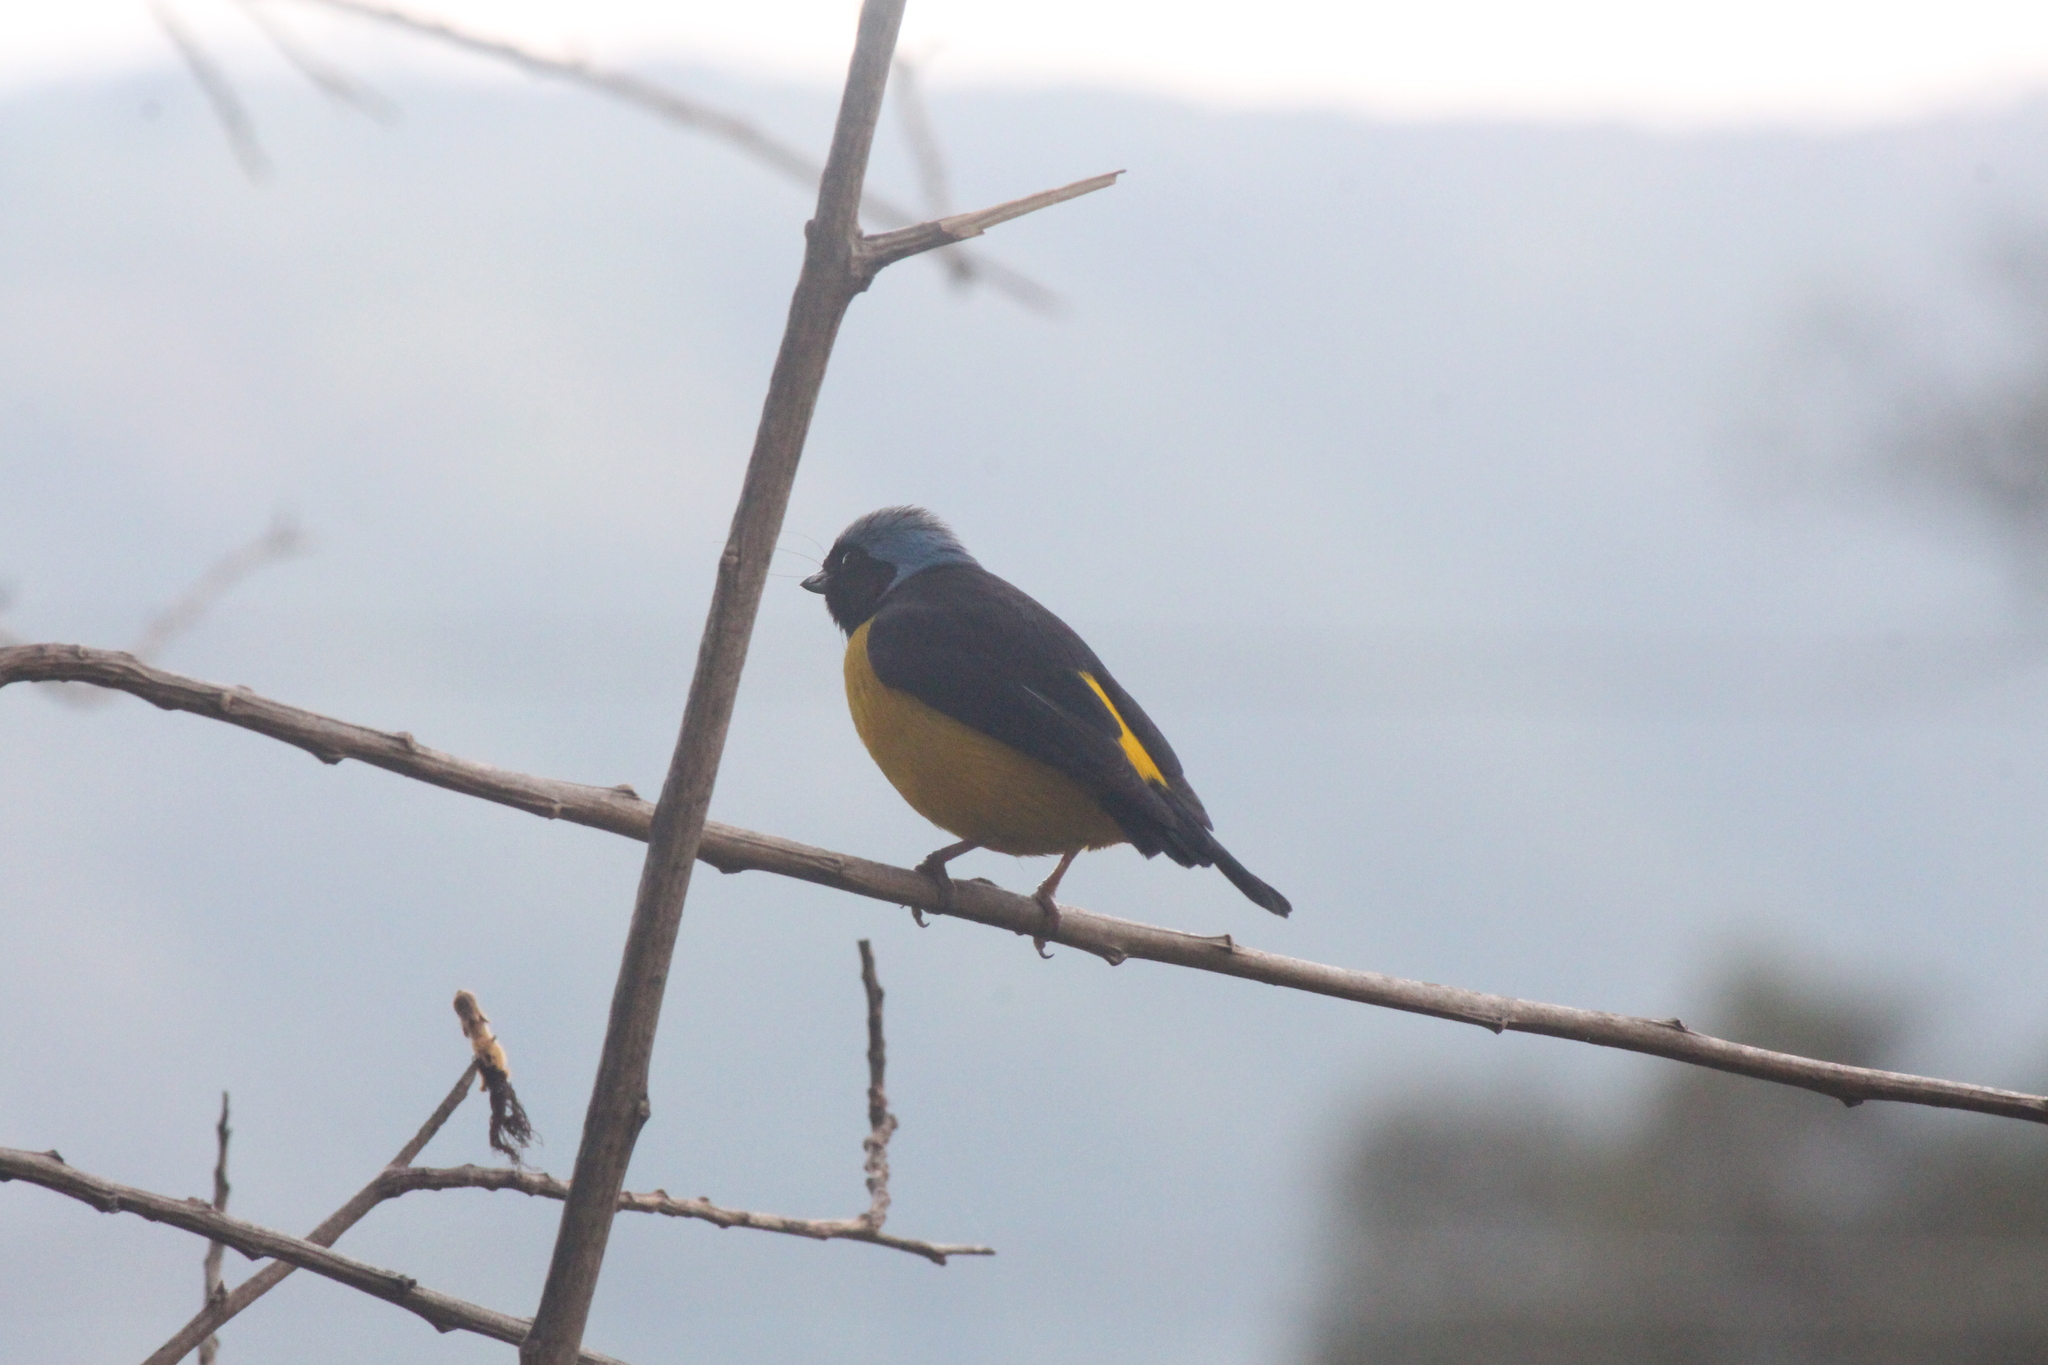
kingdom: Animalia
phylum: Chordata
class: Aves
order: Passeriformes
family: Fringillidae
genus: Euphonia
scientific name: Euphonia cyanocephala
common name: Golden-rumped euphonia
